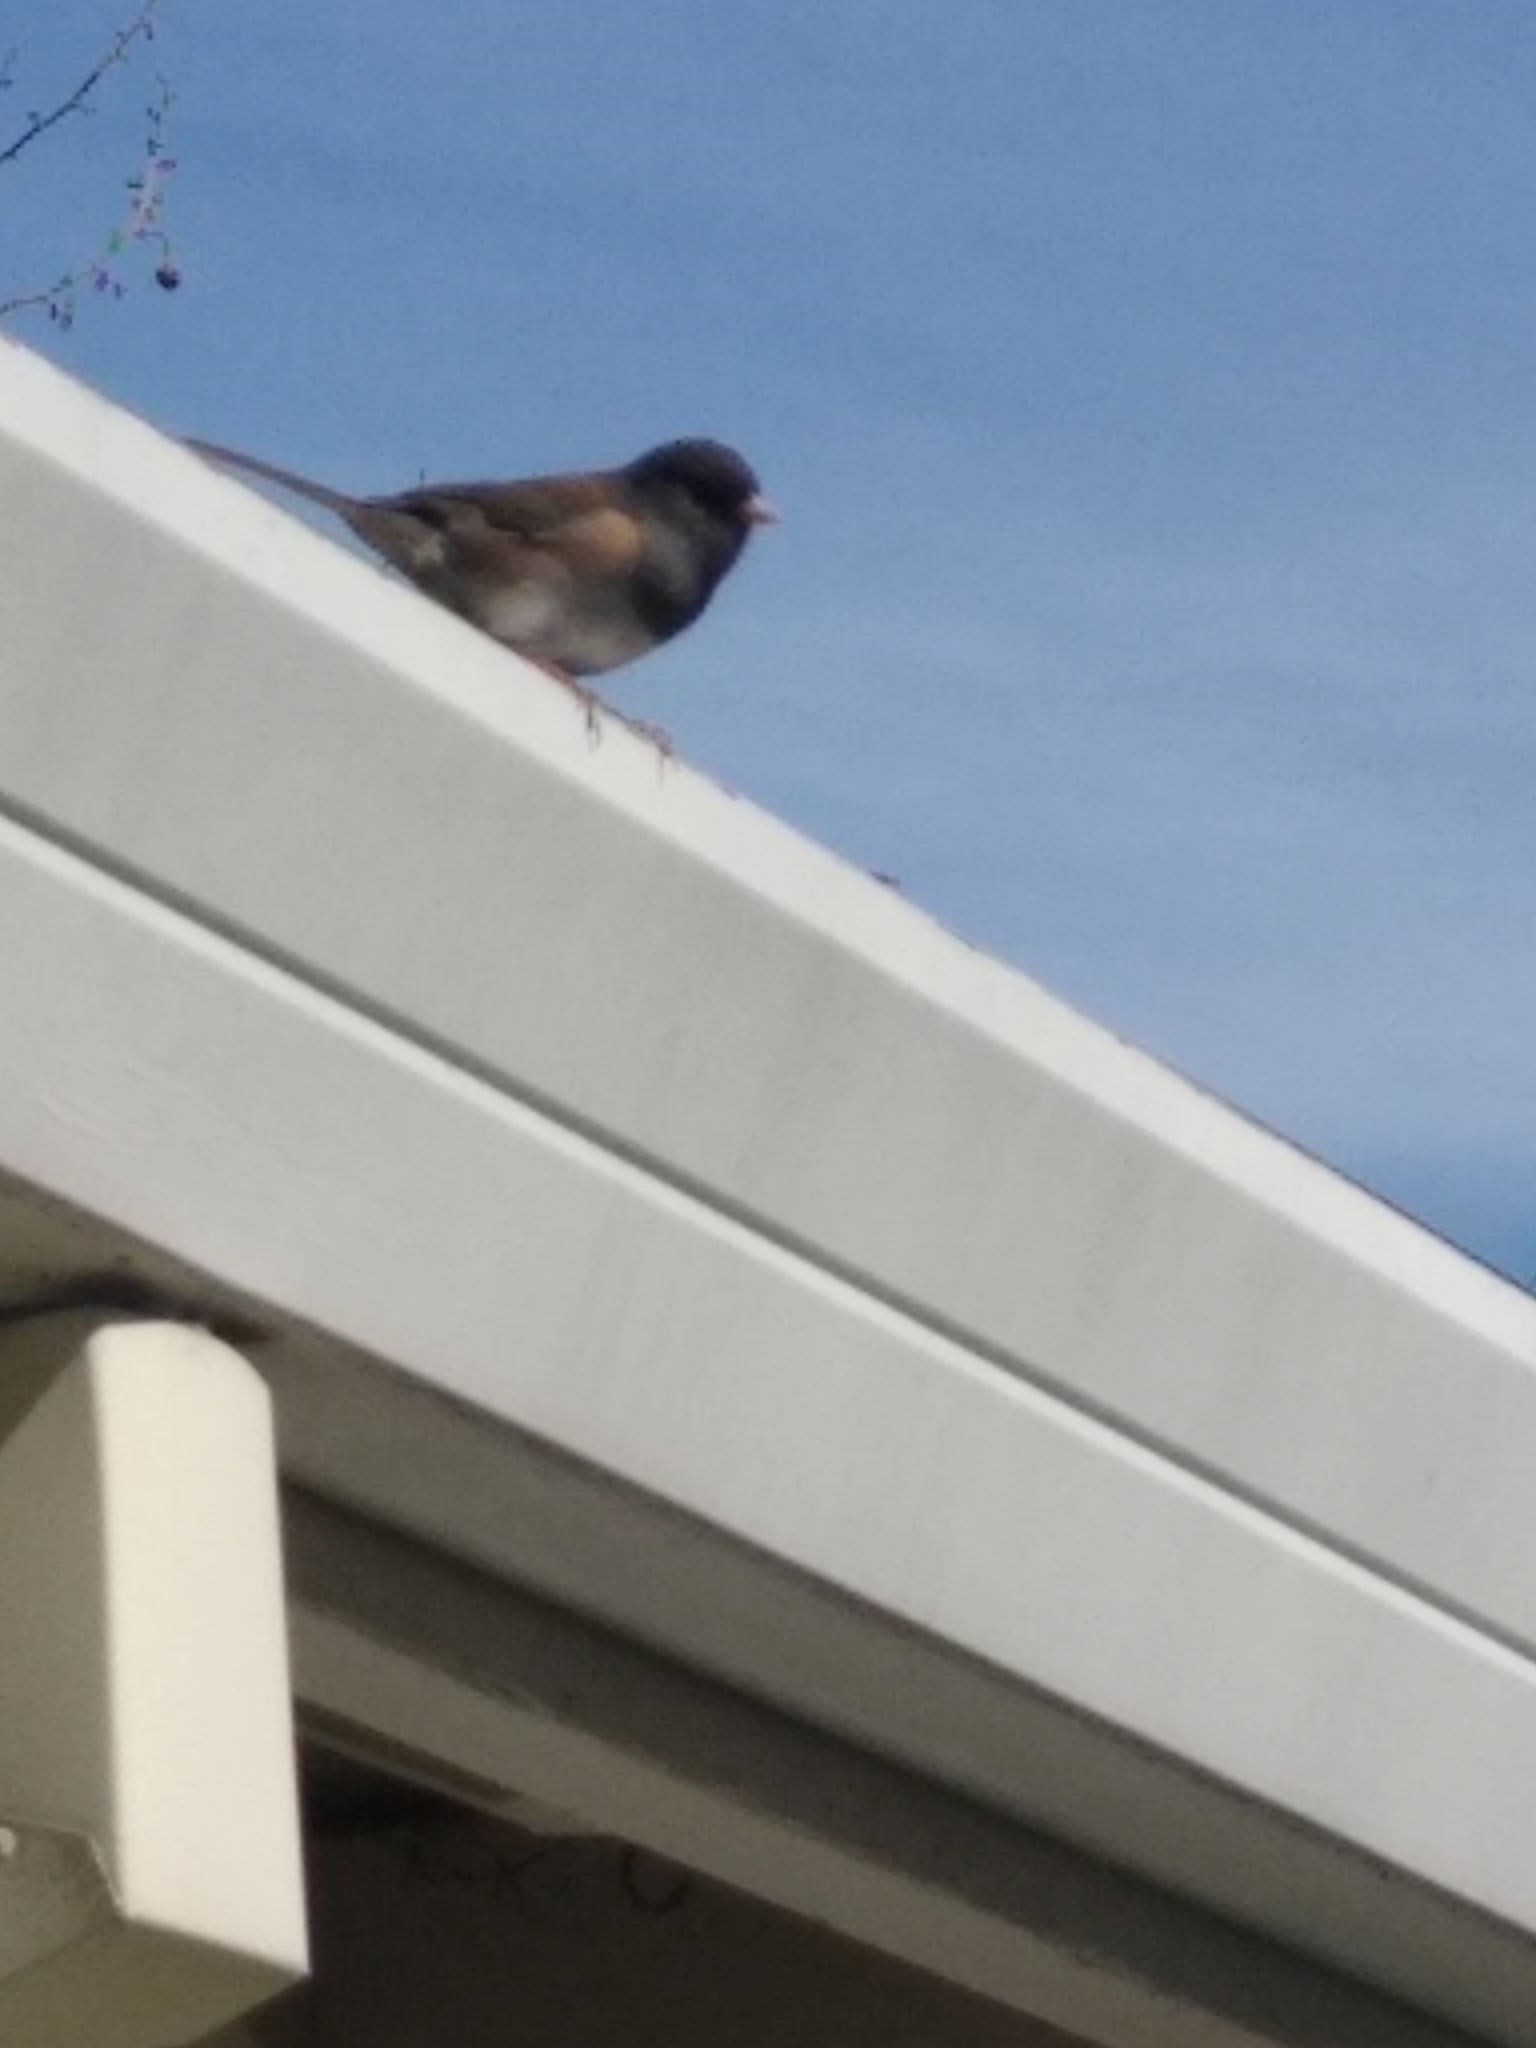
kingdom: Animalia
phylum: Chordata
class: Aves
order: Passeriformes
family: Passerellidae
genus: Junco
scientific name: Junco hyemalis
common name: Dark-eyed junco
